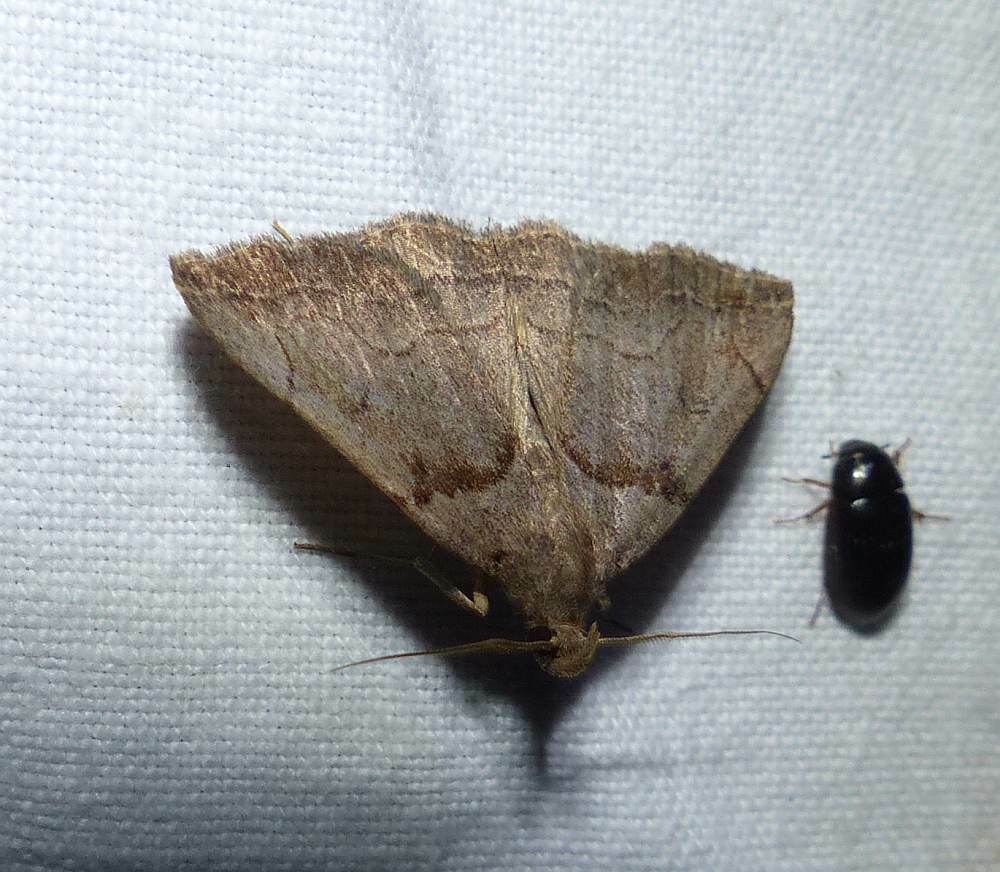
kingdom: Animalia
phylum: Arthropoda
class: Insecta
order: Lepidoptera
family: Erebidae
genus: Zanclognatha
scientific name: Zanclognatha laevigata
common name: Variable fan-foot
